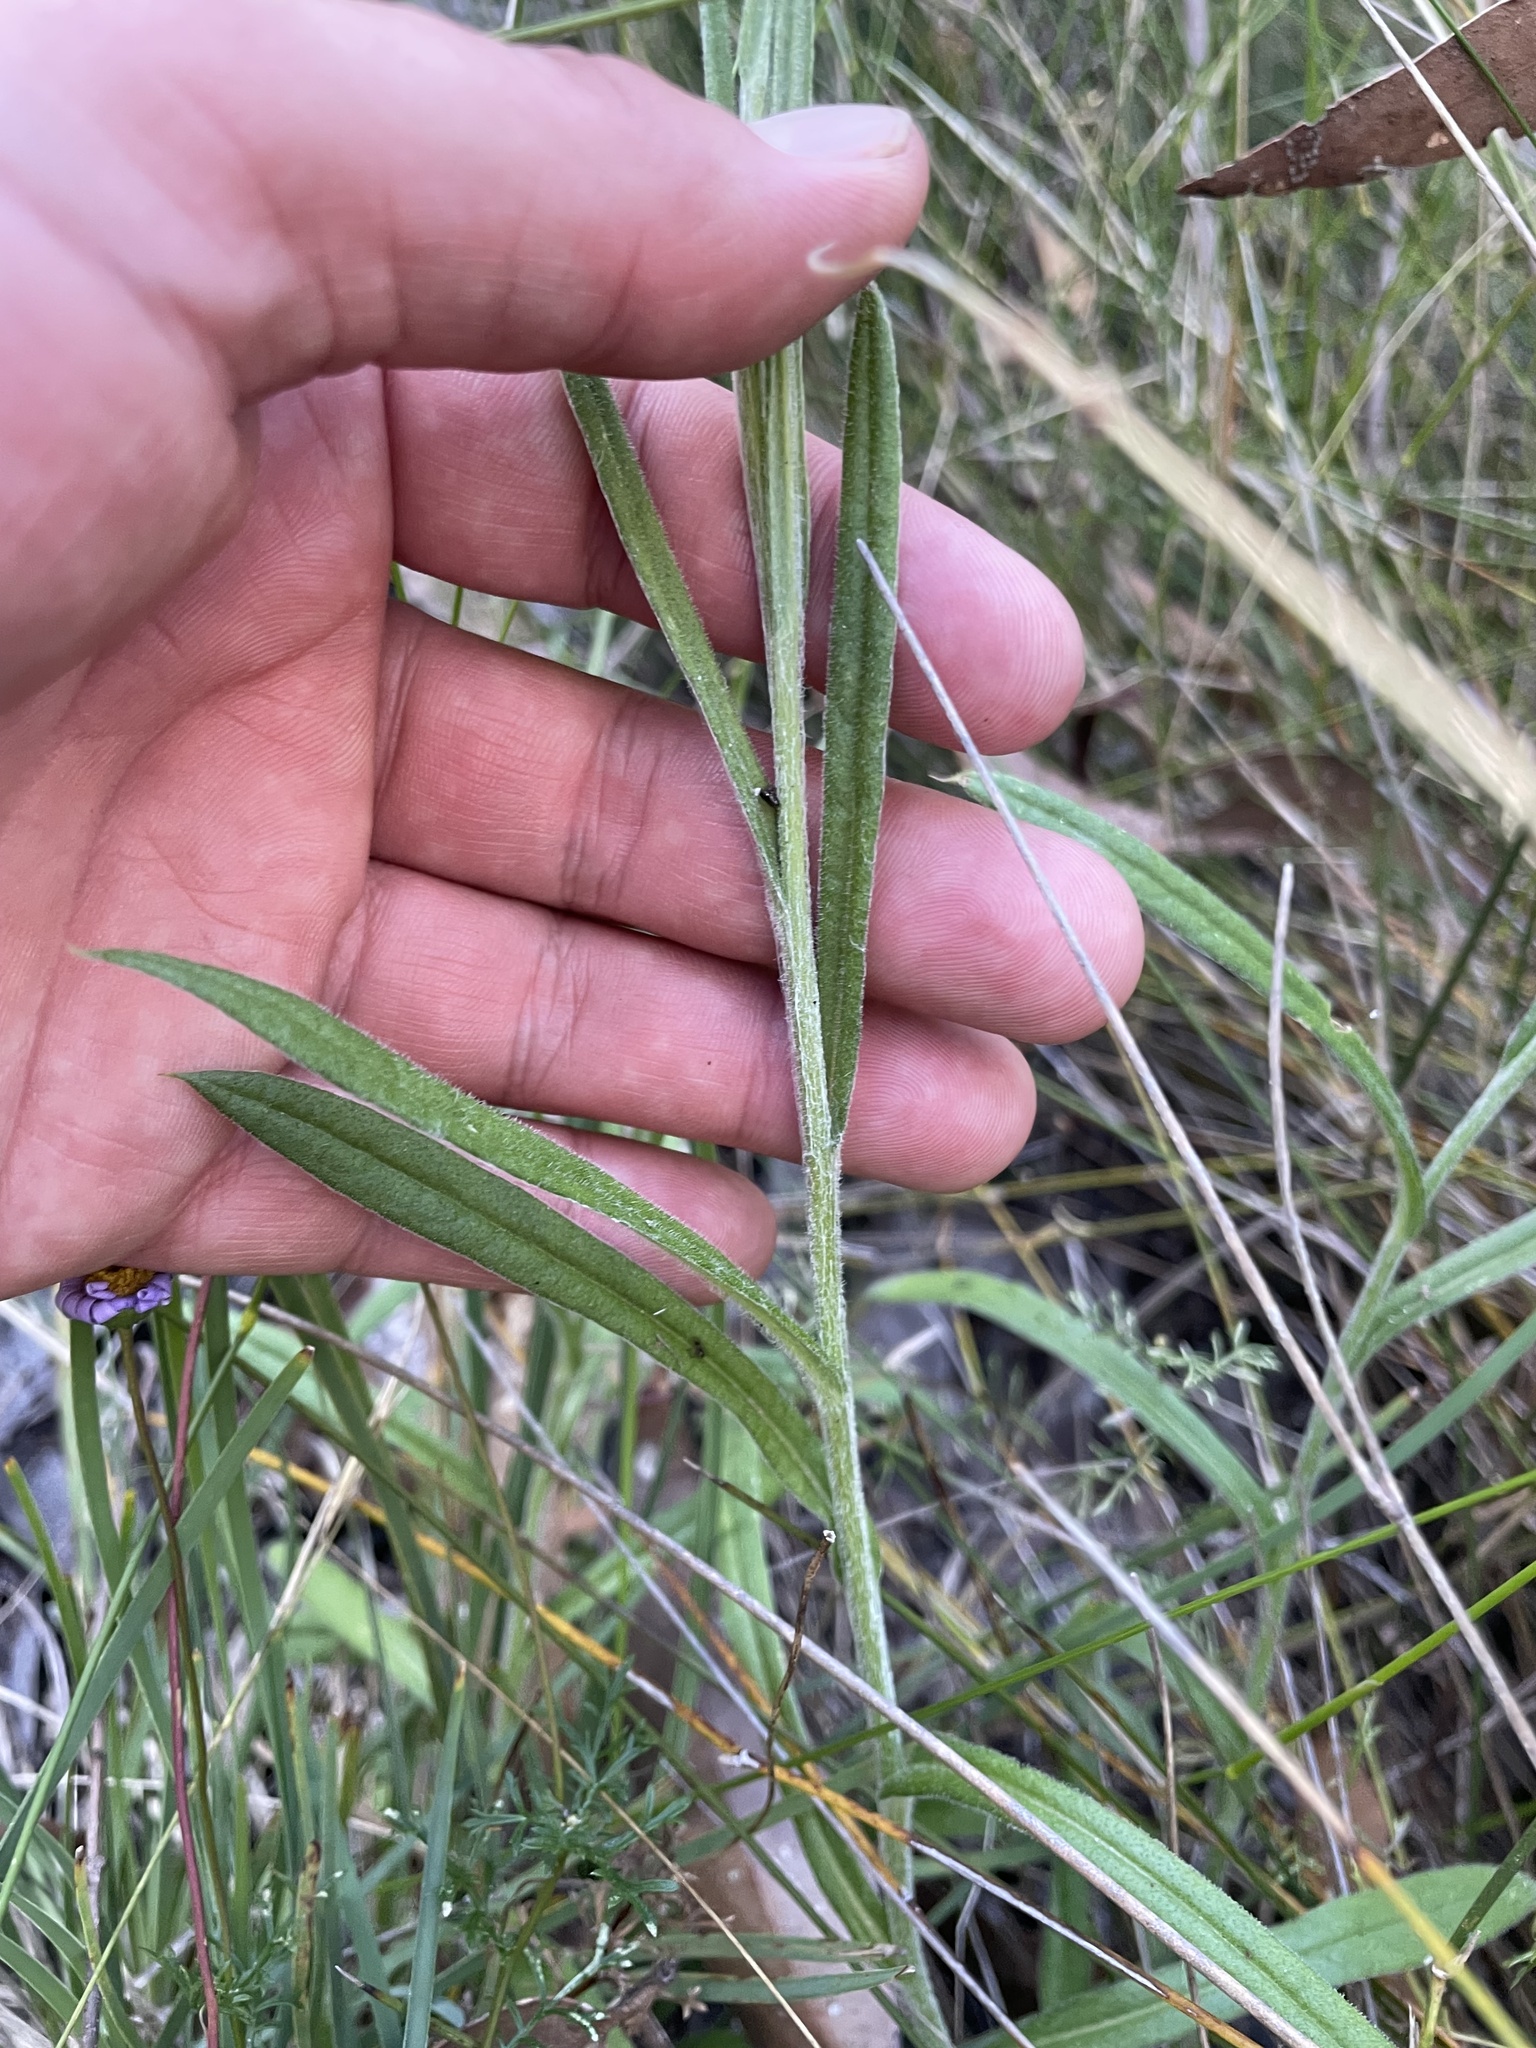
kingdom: Plantae
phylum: Tracheophyta
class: Magnoliopsida
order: Asterales
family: Asteraceae
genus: Coronidium
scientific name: Coronidium scorpioides
